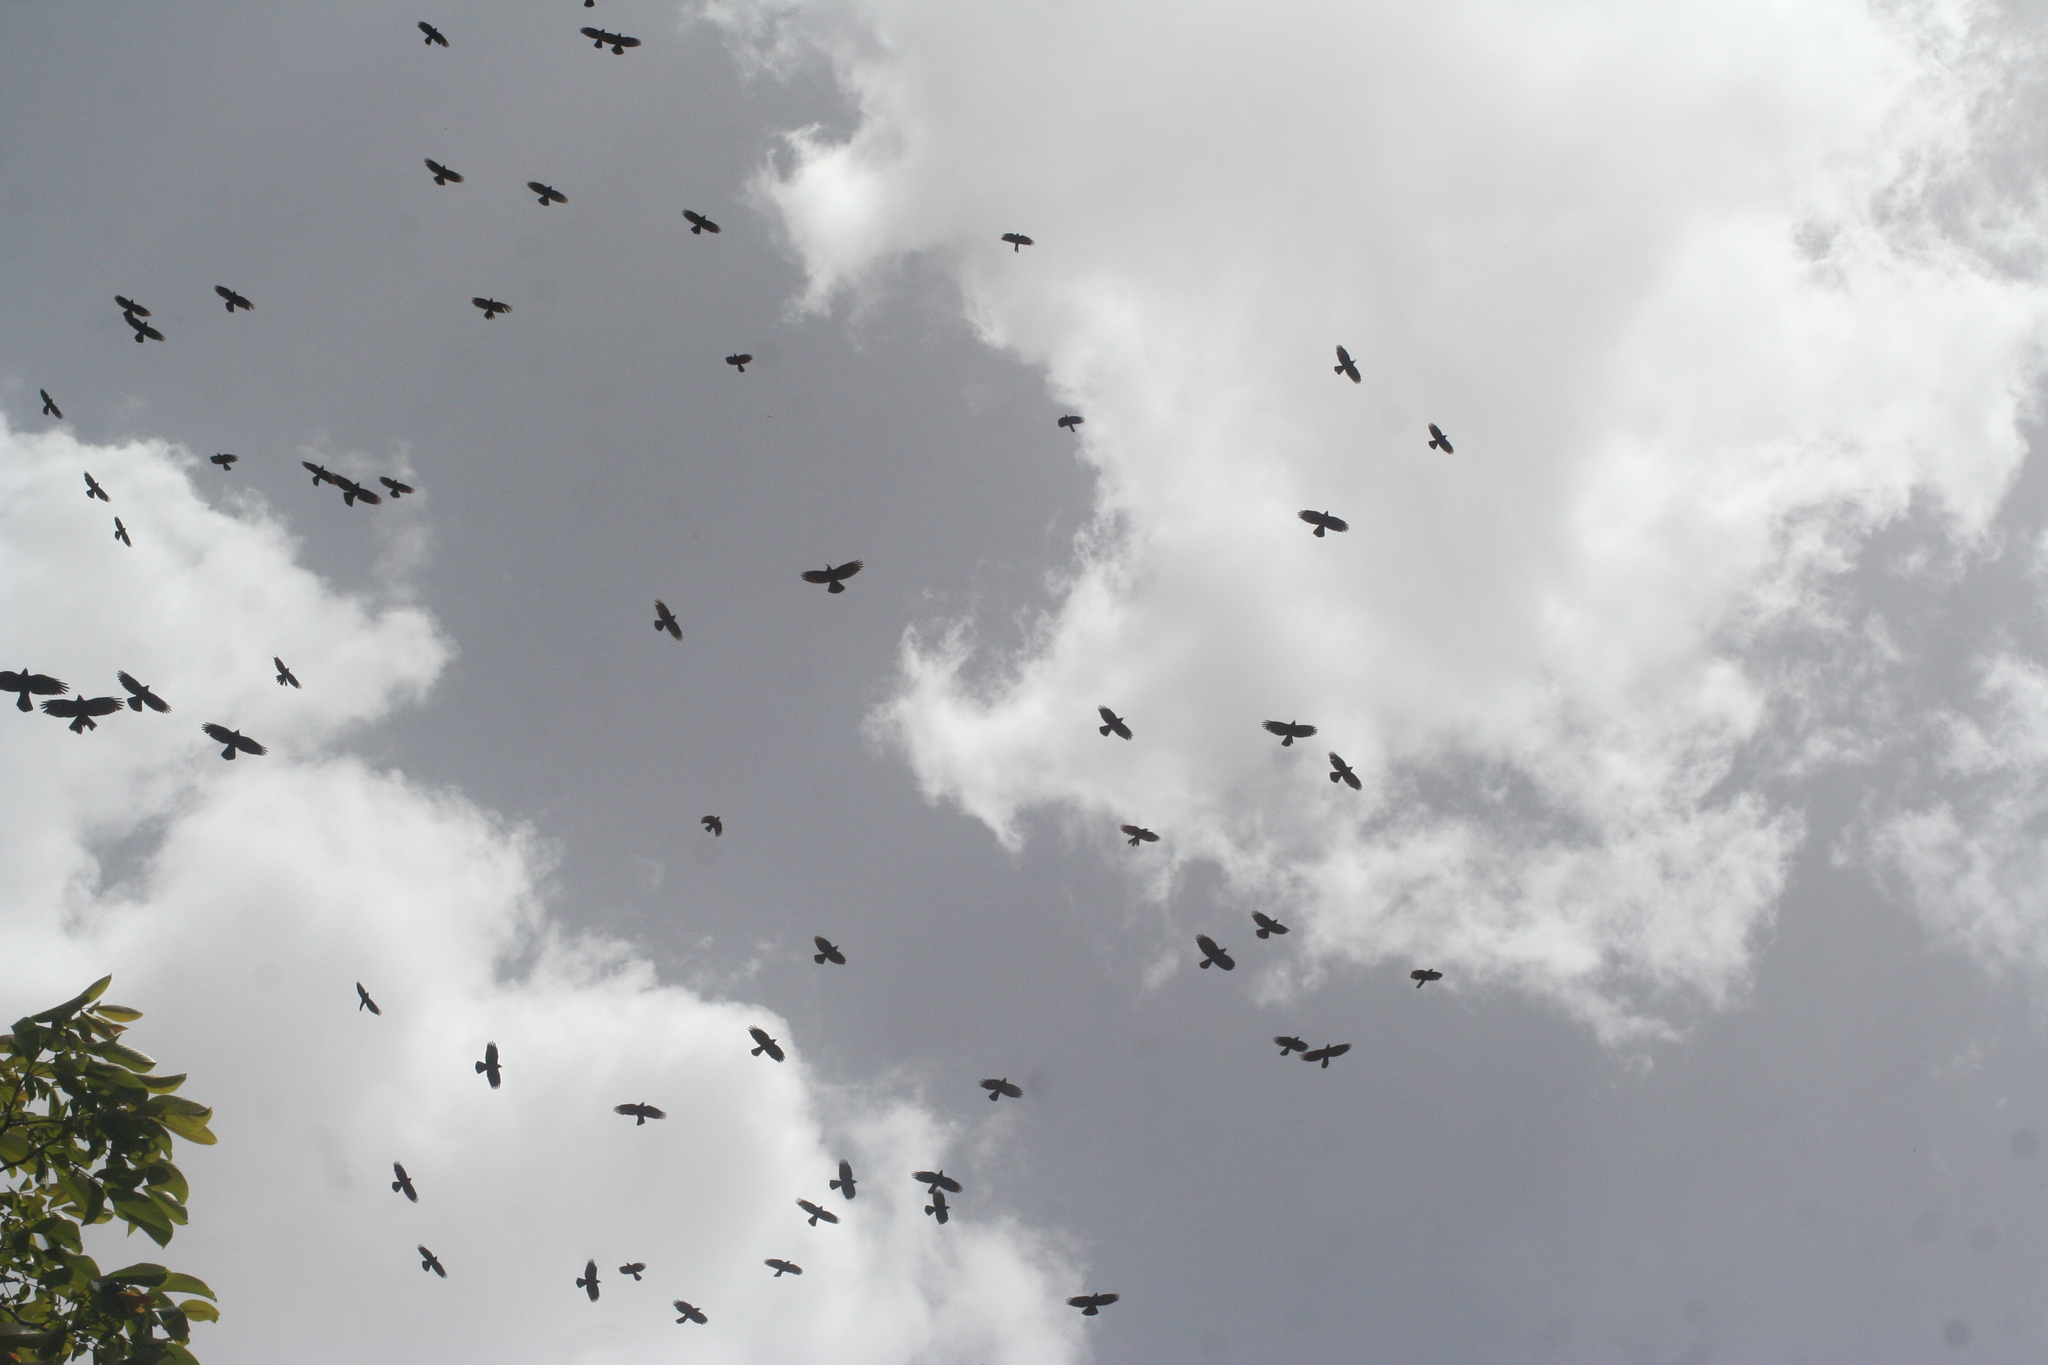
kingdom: Animalia
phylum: Chordata
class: Aves
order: Passeriformes
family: Corvidae
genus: Pyrrhocorax
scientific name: Pyrrhocorax graculus
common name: Alpine chough
